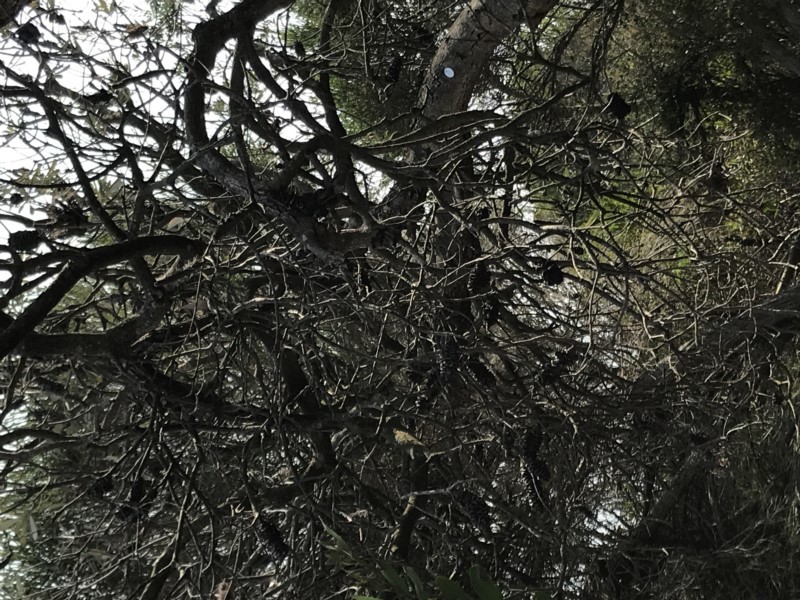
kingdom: Plantae
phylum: Tracheophyta
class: Magnoliopsida
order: Proteales
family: Proteaceae
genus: Banksia
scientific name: Banksia integrifolia
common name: White-honeysuckle
